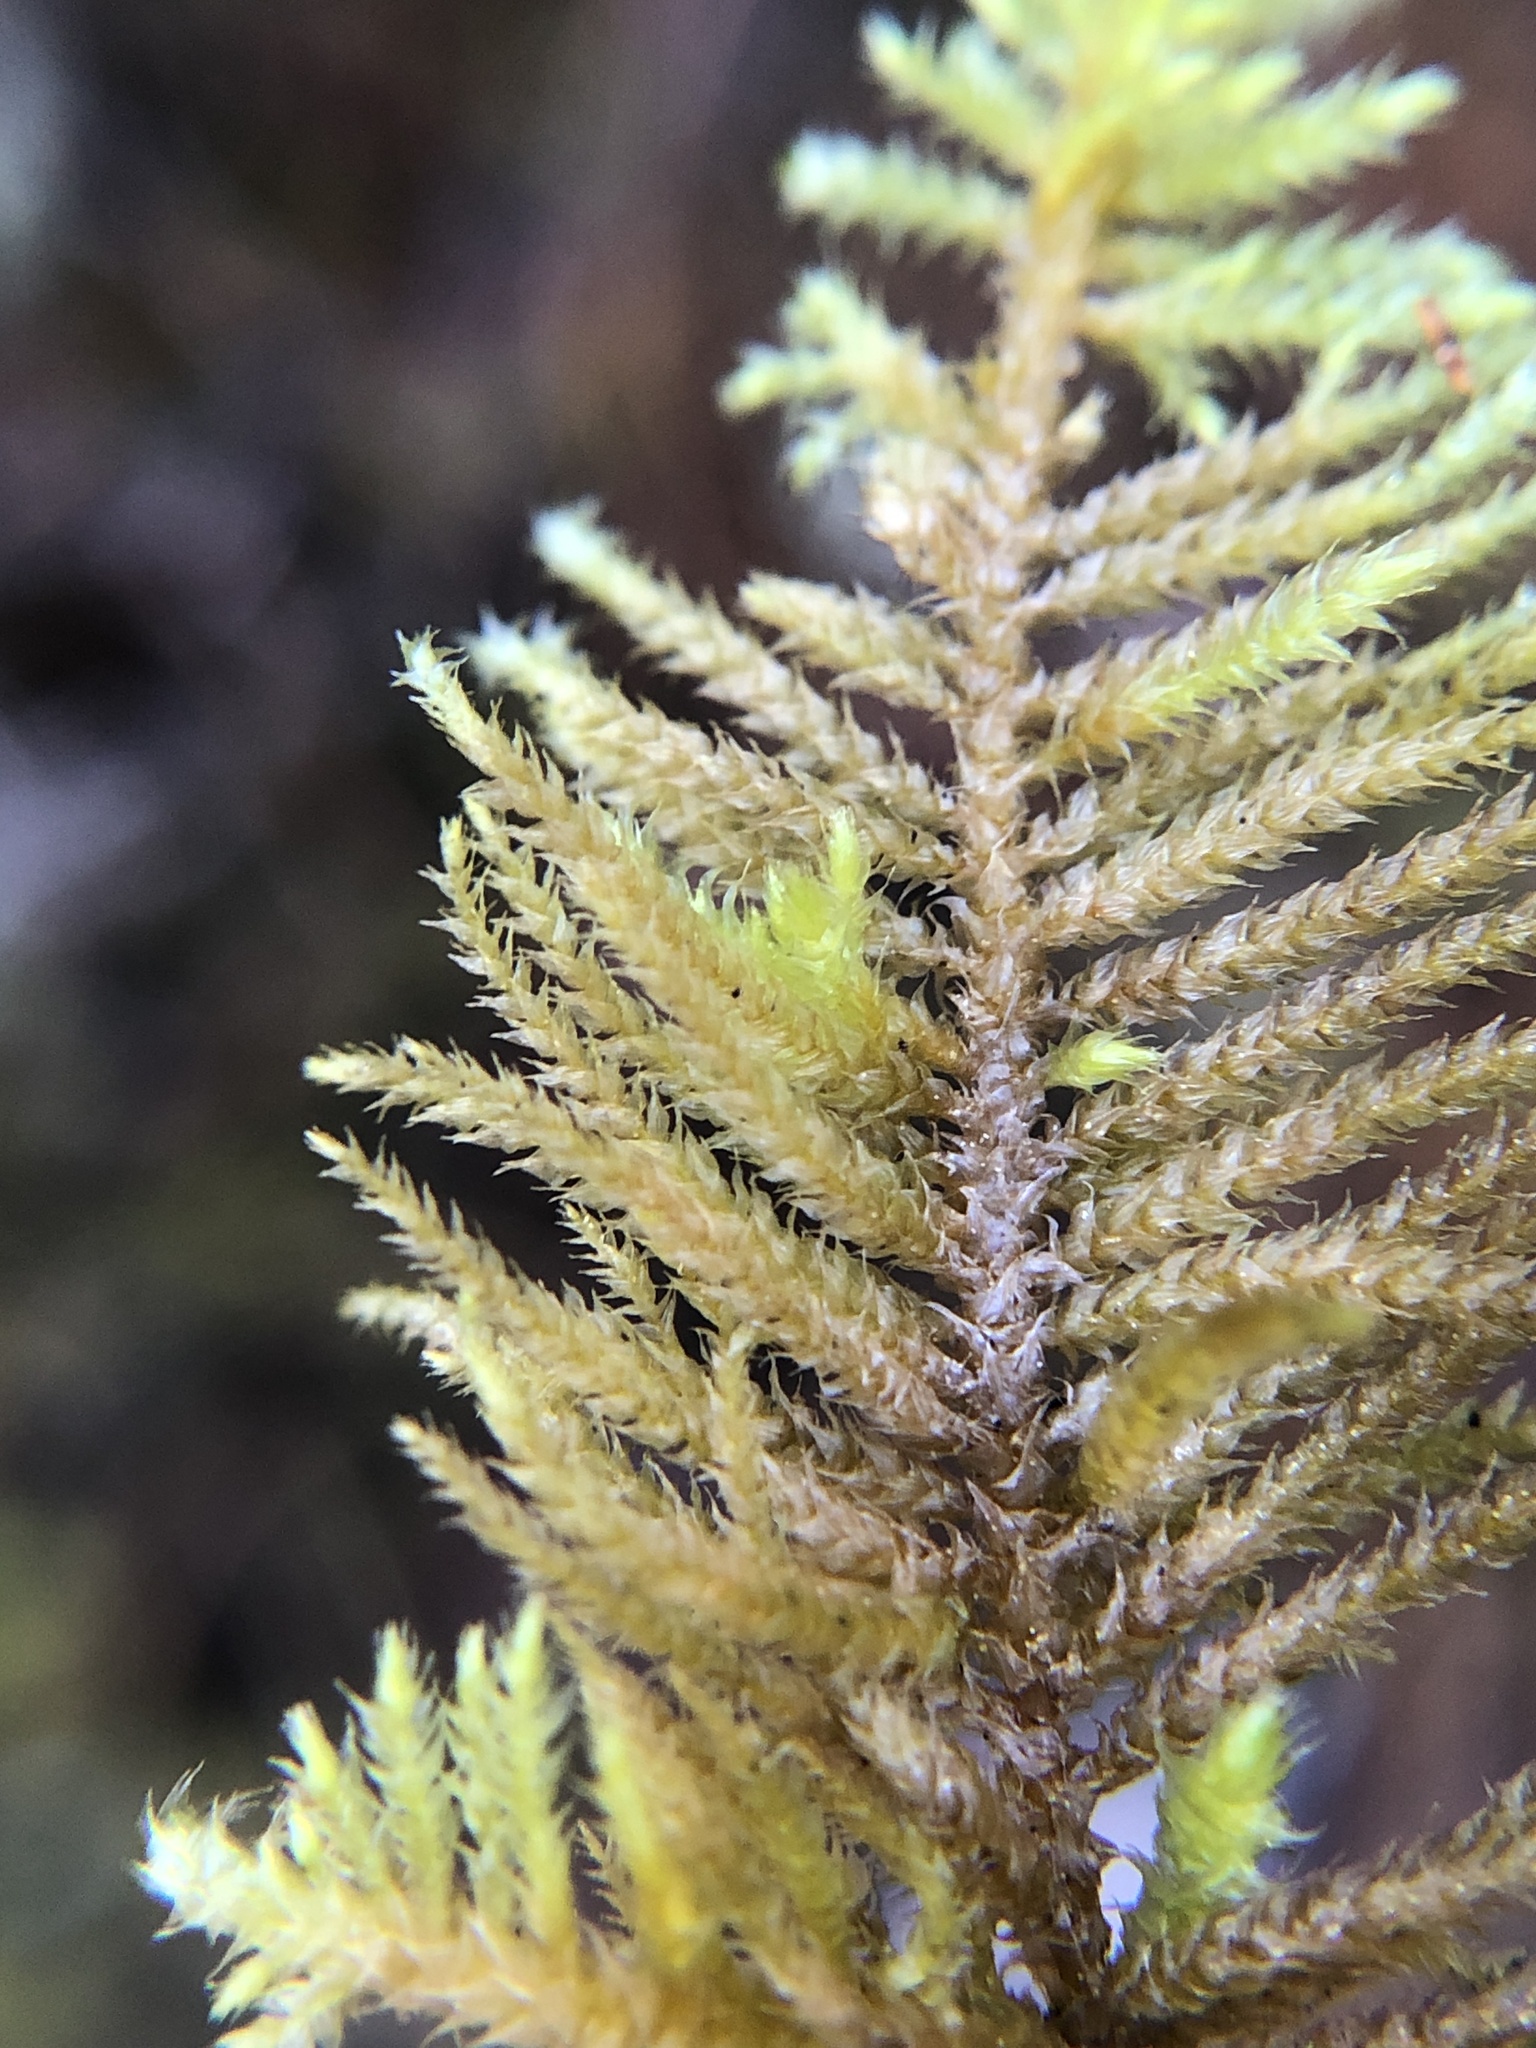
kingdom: Plantae
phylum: Bryophyta
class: Bryopsida
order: Hypnales
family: Brachytheciaceae
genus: Kindbergia
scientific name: Kindbergia oregana
